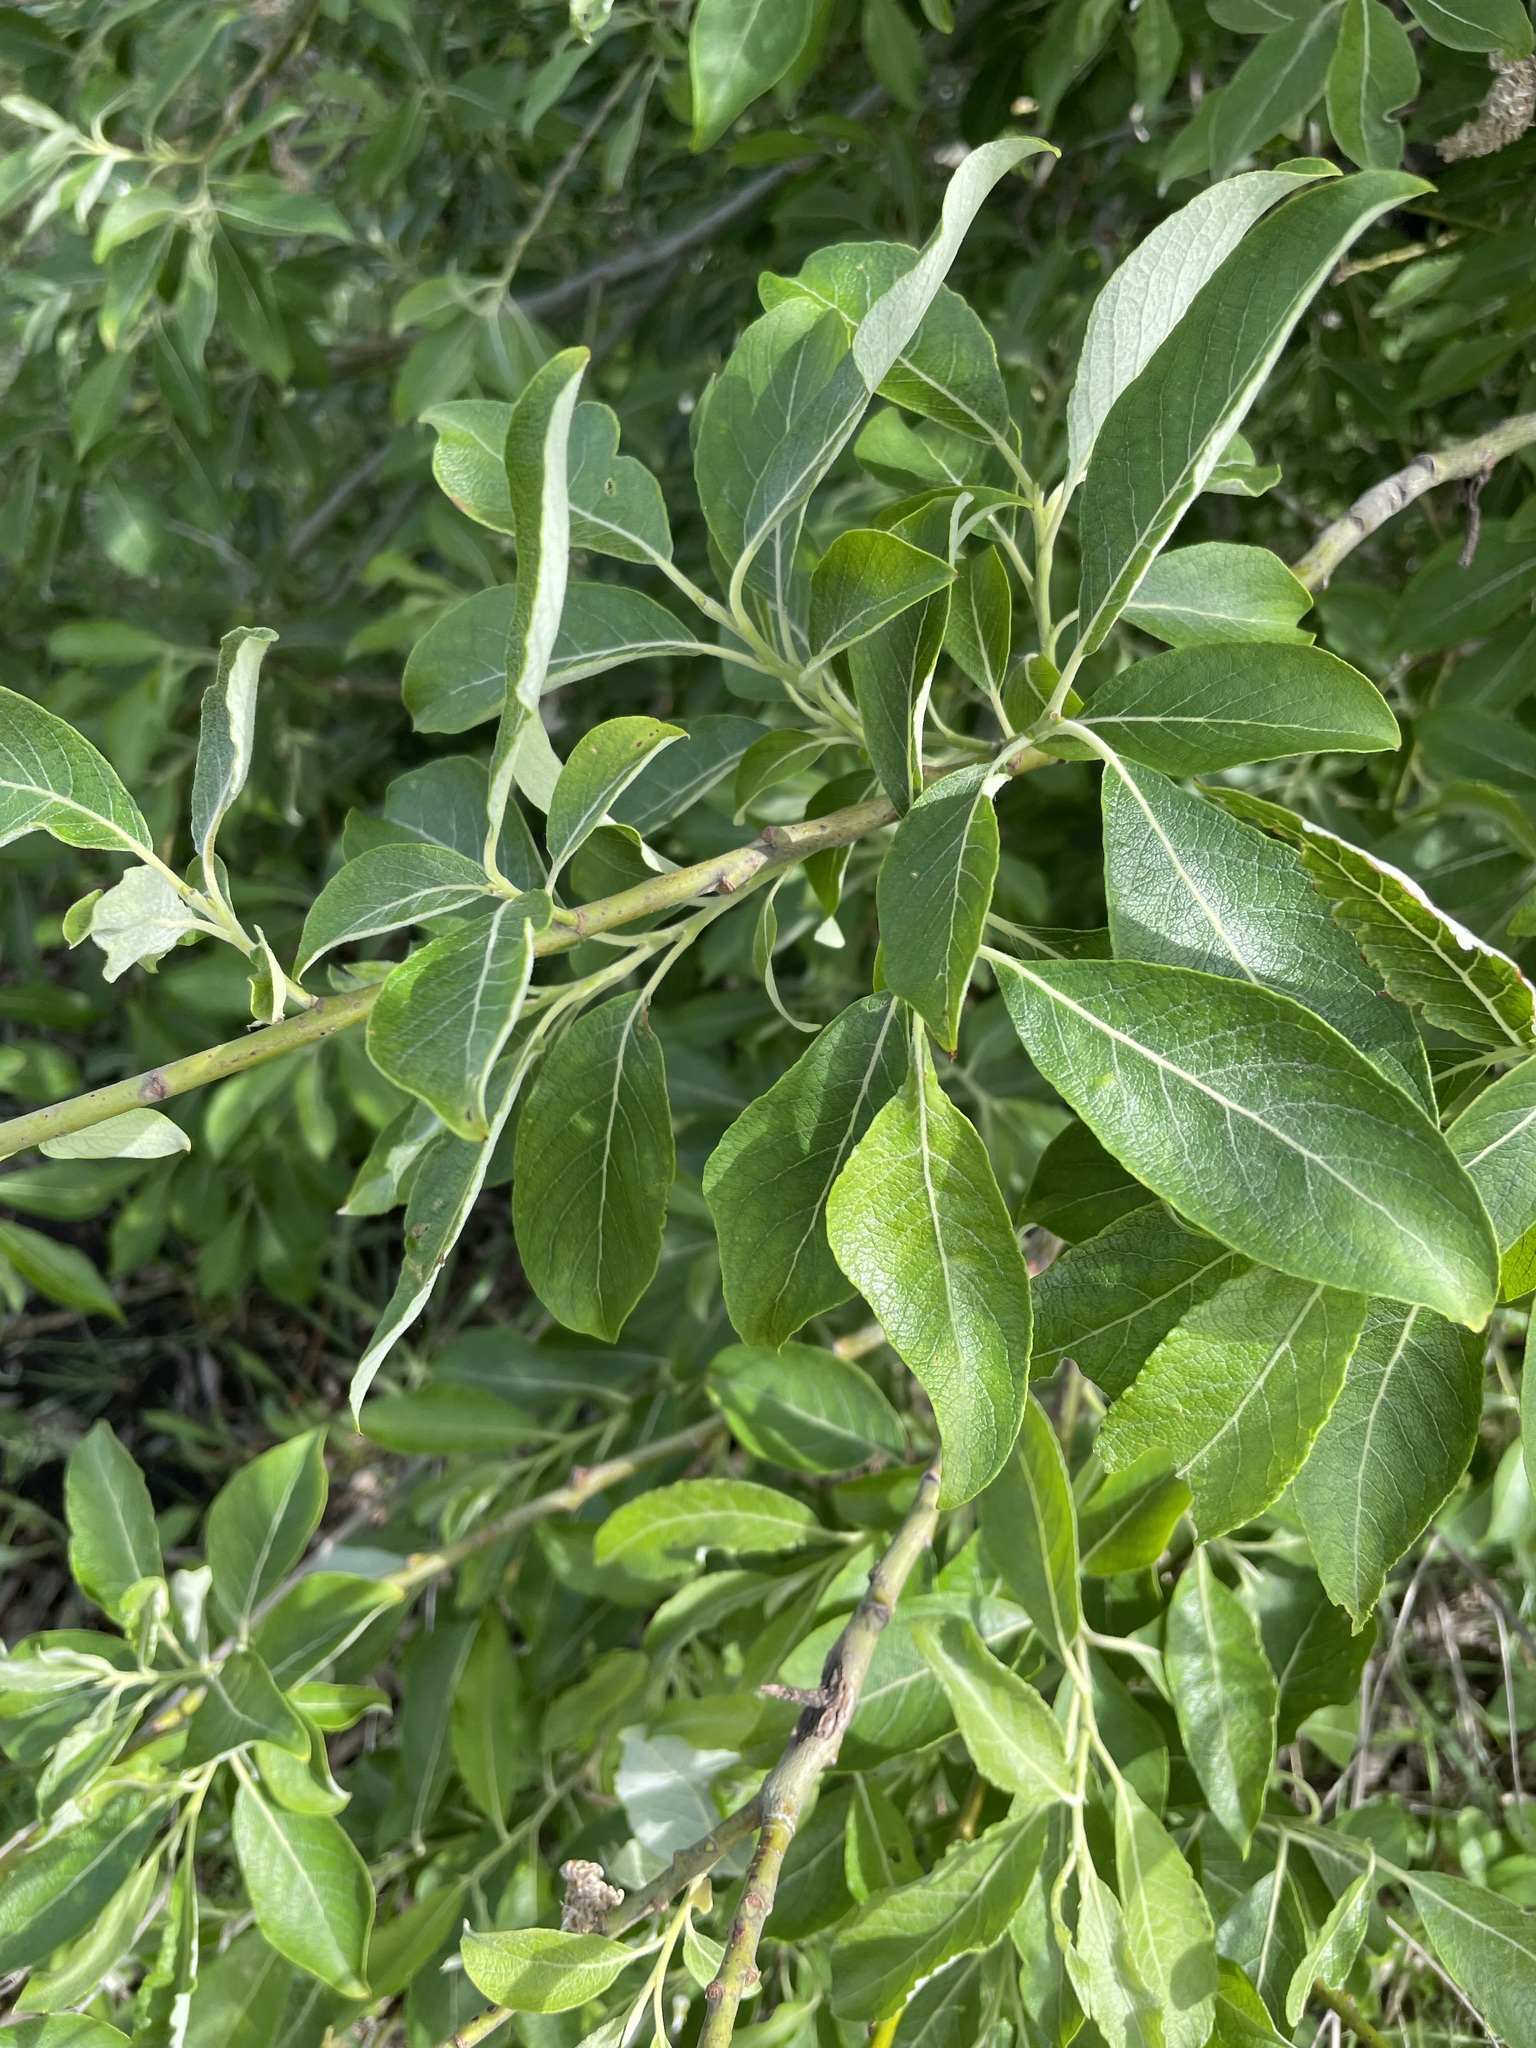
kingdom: Plantae
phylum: Tracheophyta
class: Magnoliopsida
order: Malpighiales
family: Salicaceae
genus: Salix
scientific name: Salix caprea
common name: Goat willow
